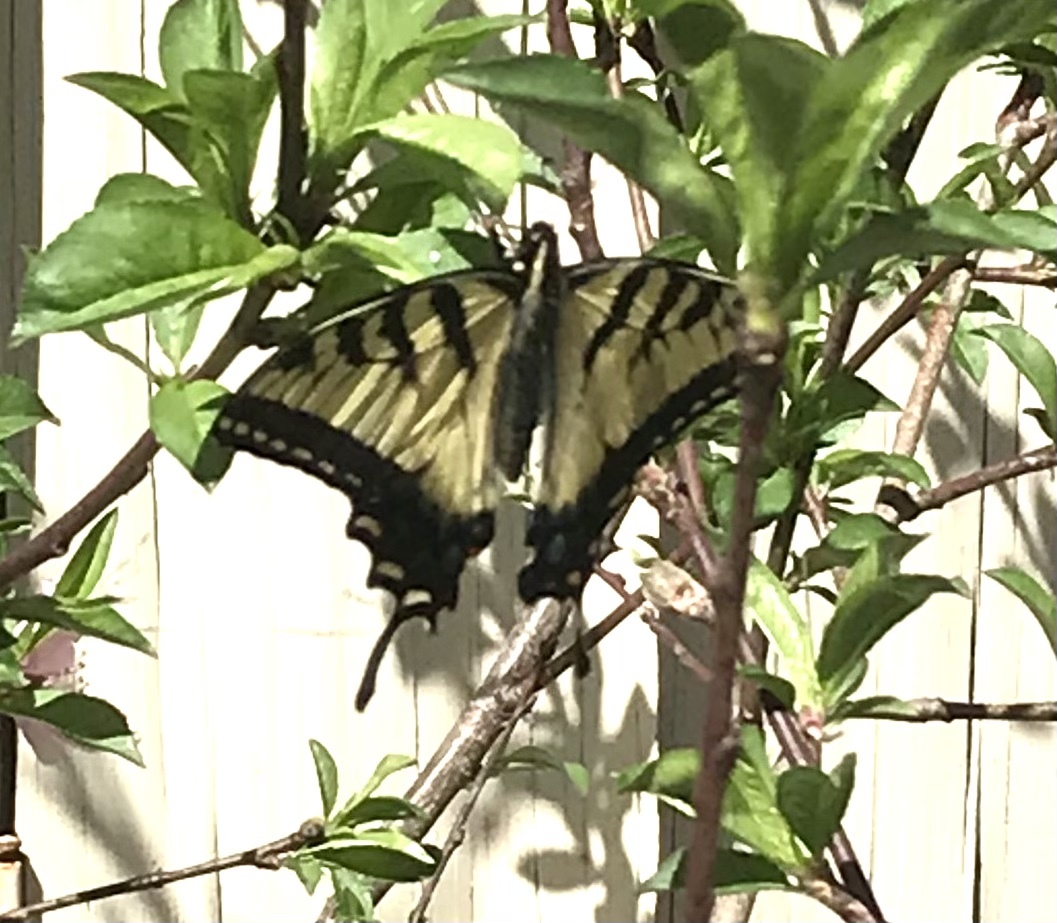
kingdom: Animalia
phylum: Arthropoda
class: Insecta
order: Lepidoptera
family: Papilionidae
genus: Papilio
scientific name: Papilio glaucus
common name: Tiger swallowtail
